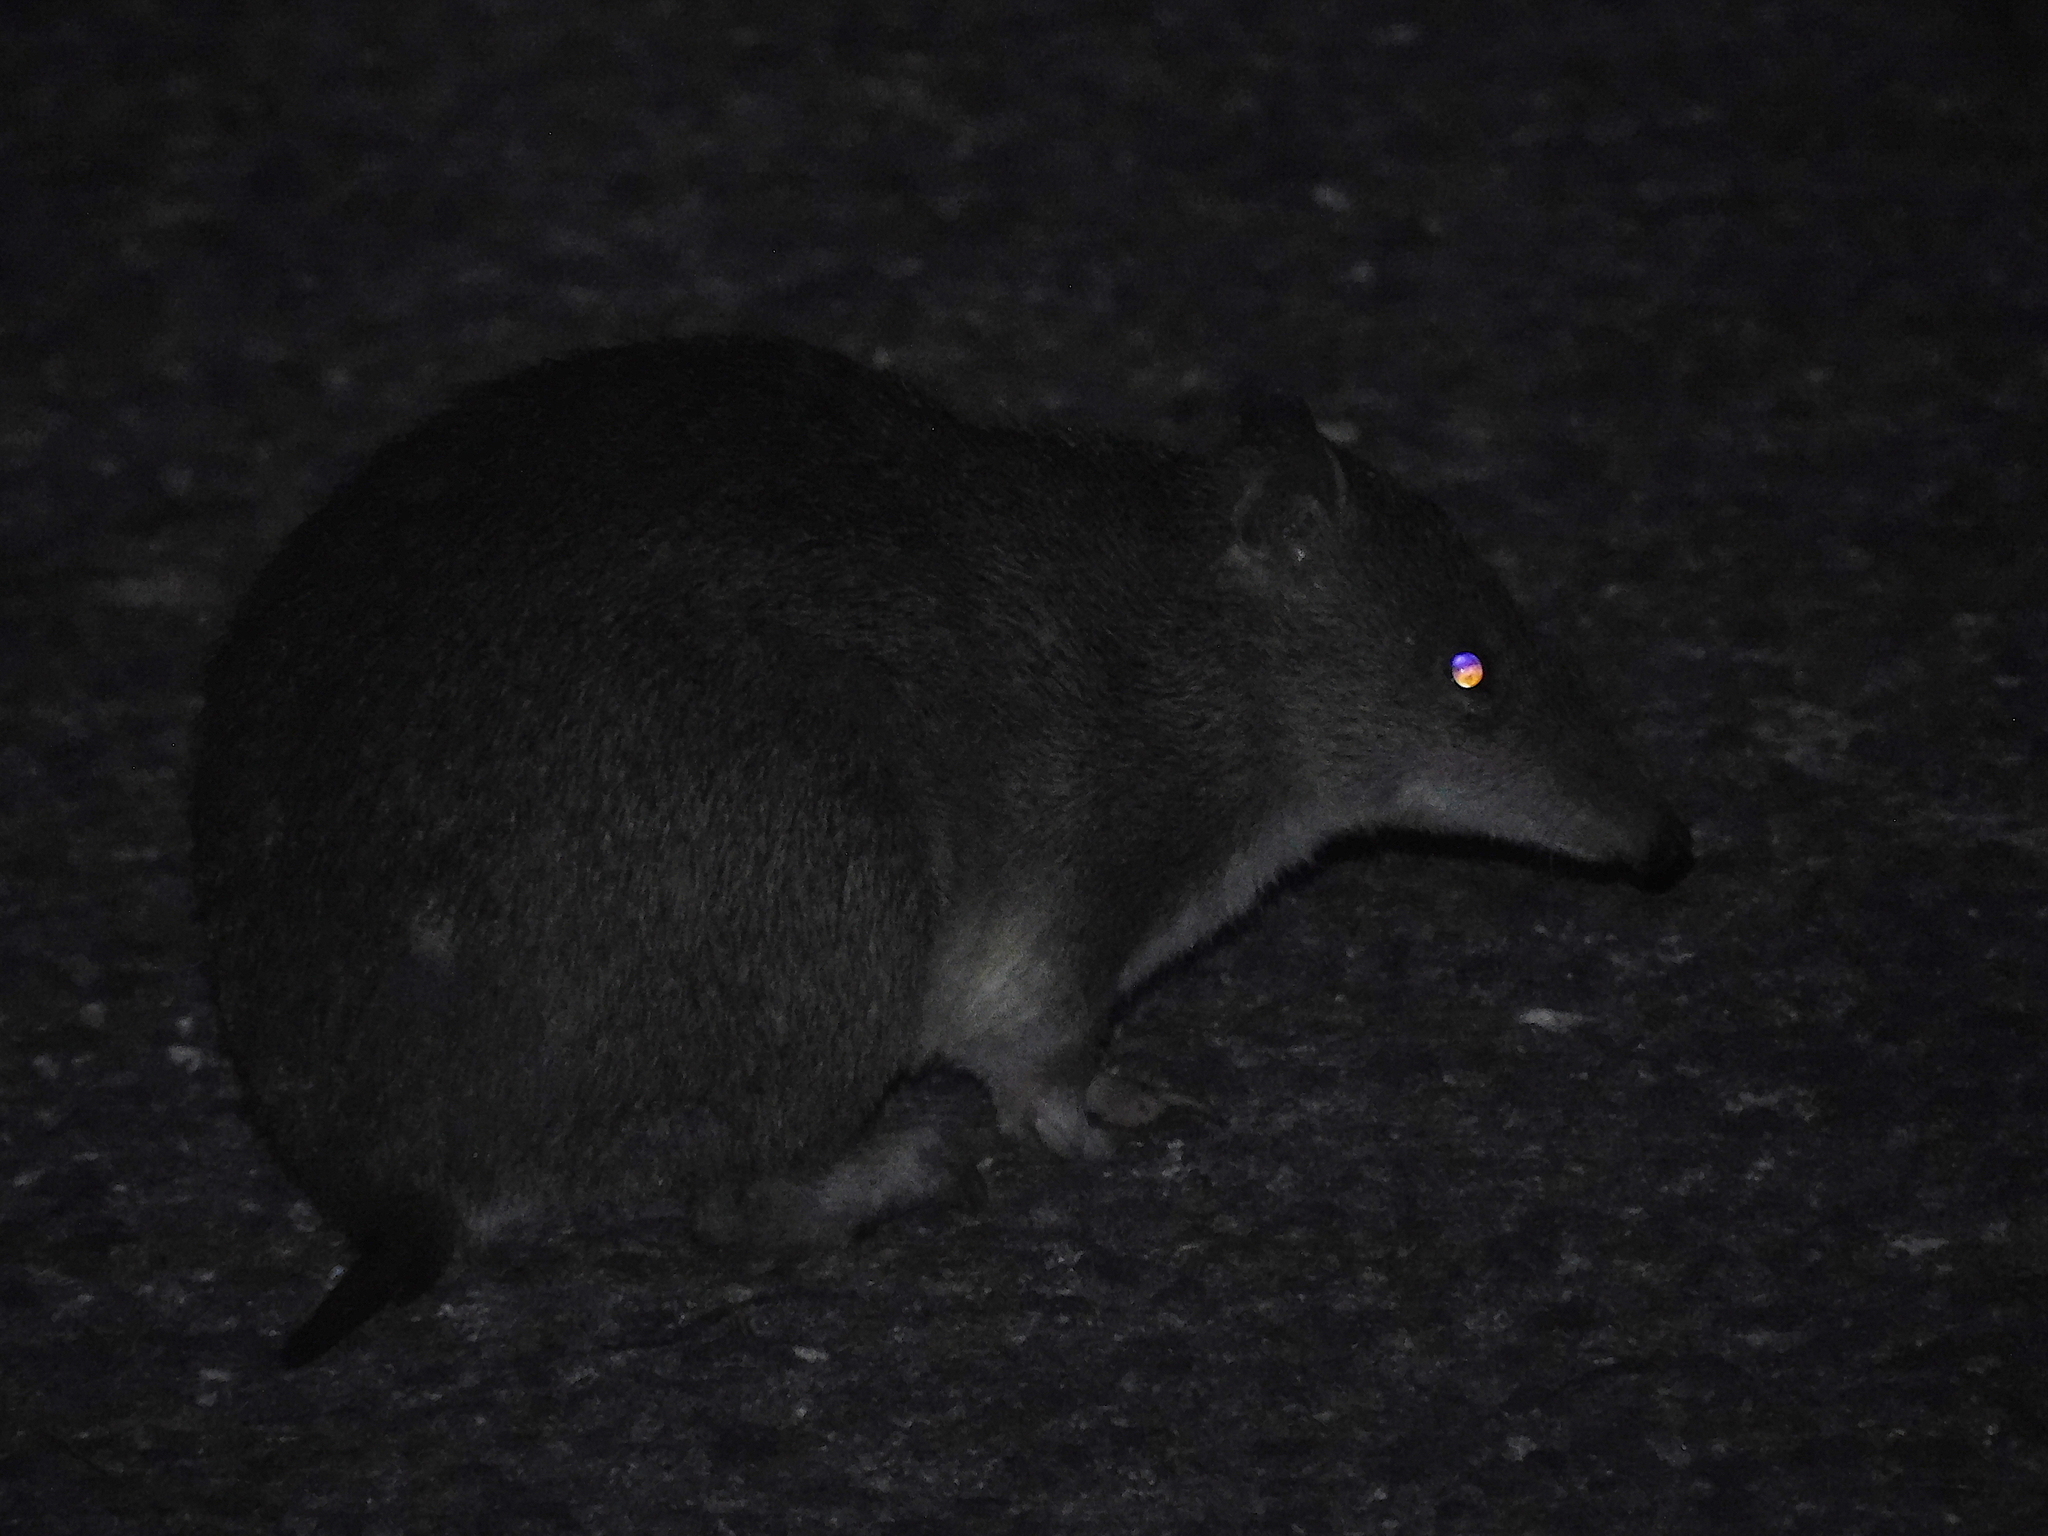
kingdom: Animalia
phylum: Chordata
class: Mammalia
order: Peramelemorphia
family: Peramelidae
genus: Isoodon
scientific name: Isoodon obesulus
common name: Southern brown bandicoot
